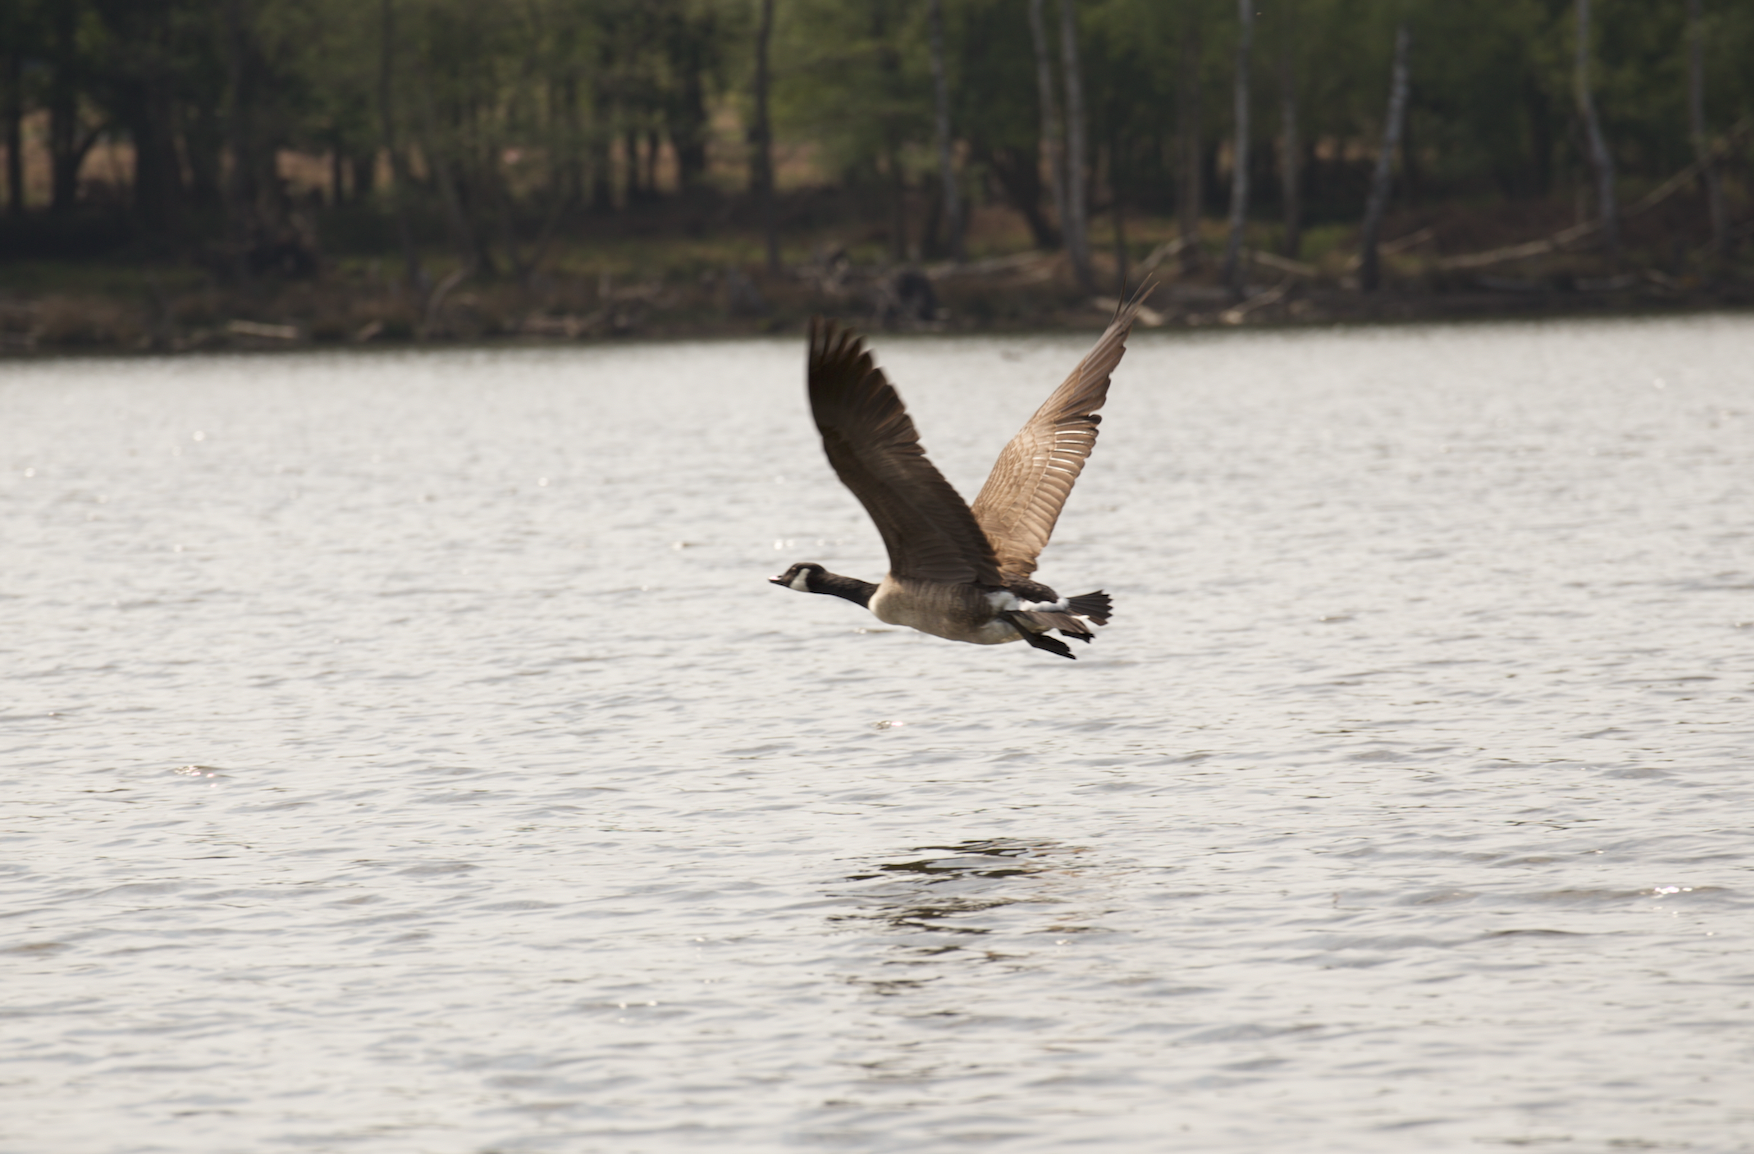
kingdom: Animalia
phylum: Chordata
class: Aves
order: Anseriformes
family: Anatidae
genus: Branta
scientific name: Branta canadensis
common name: Canada goose
